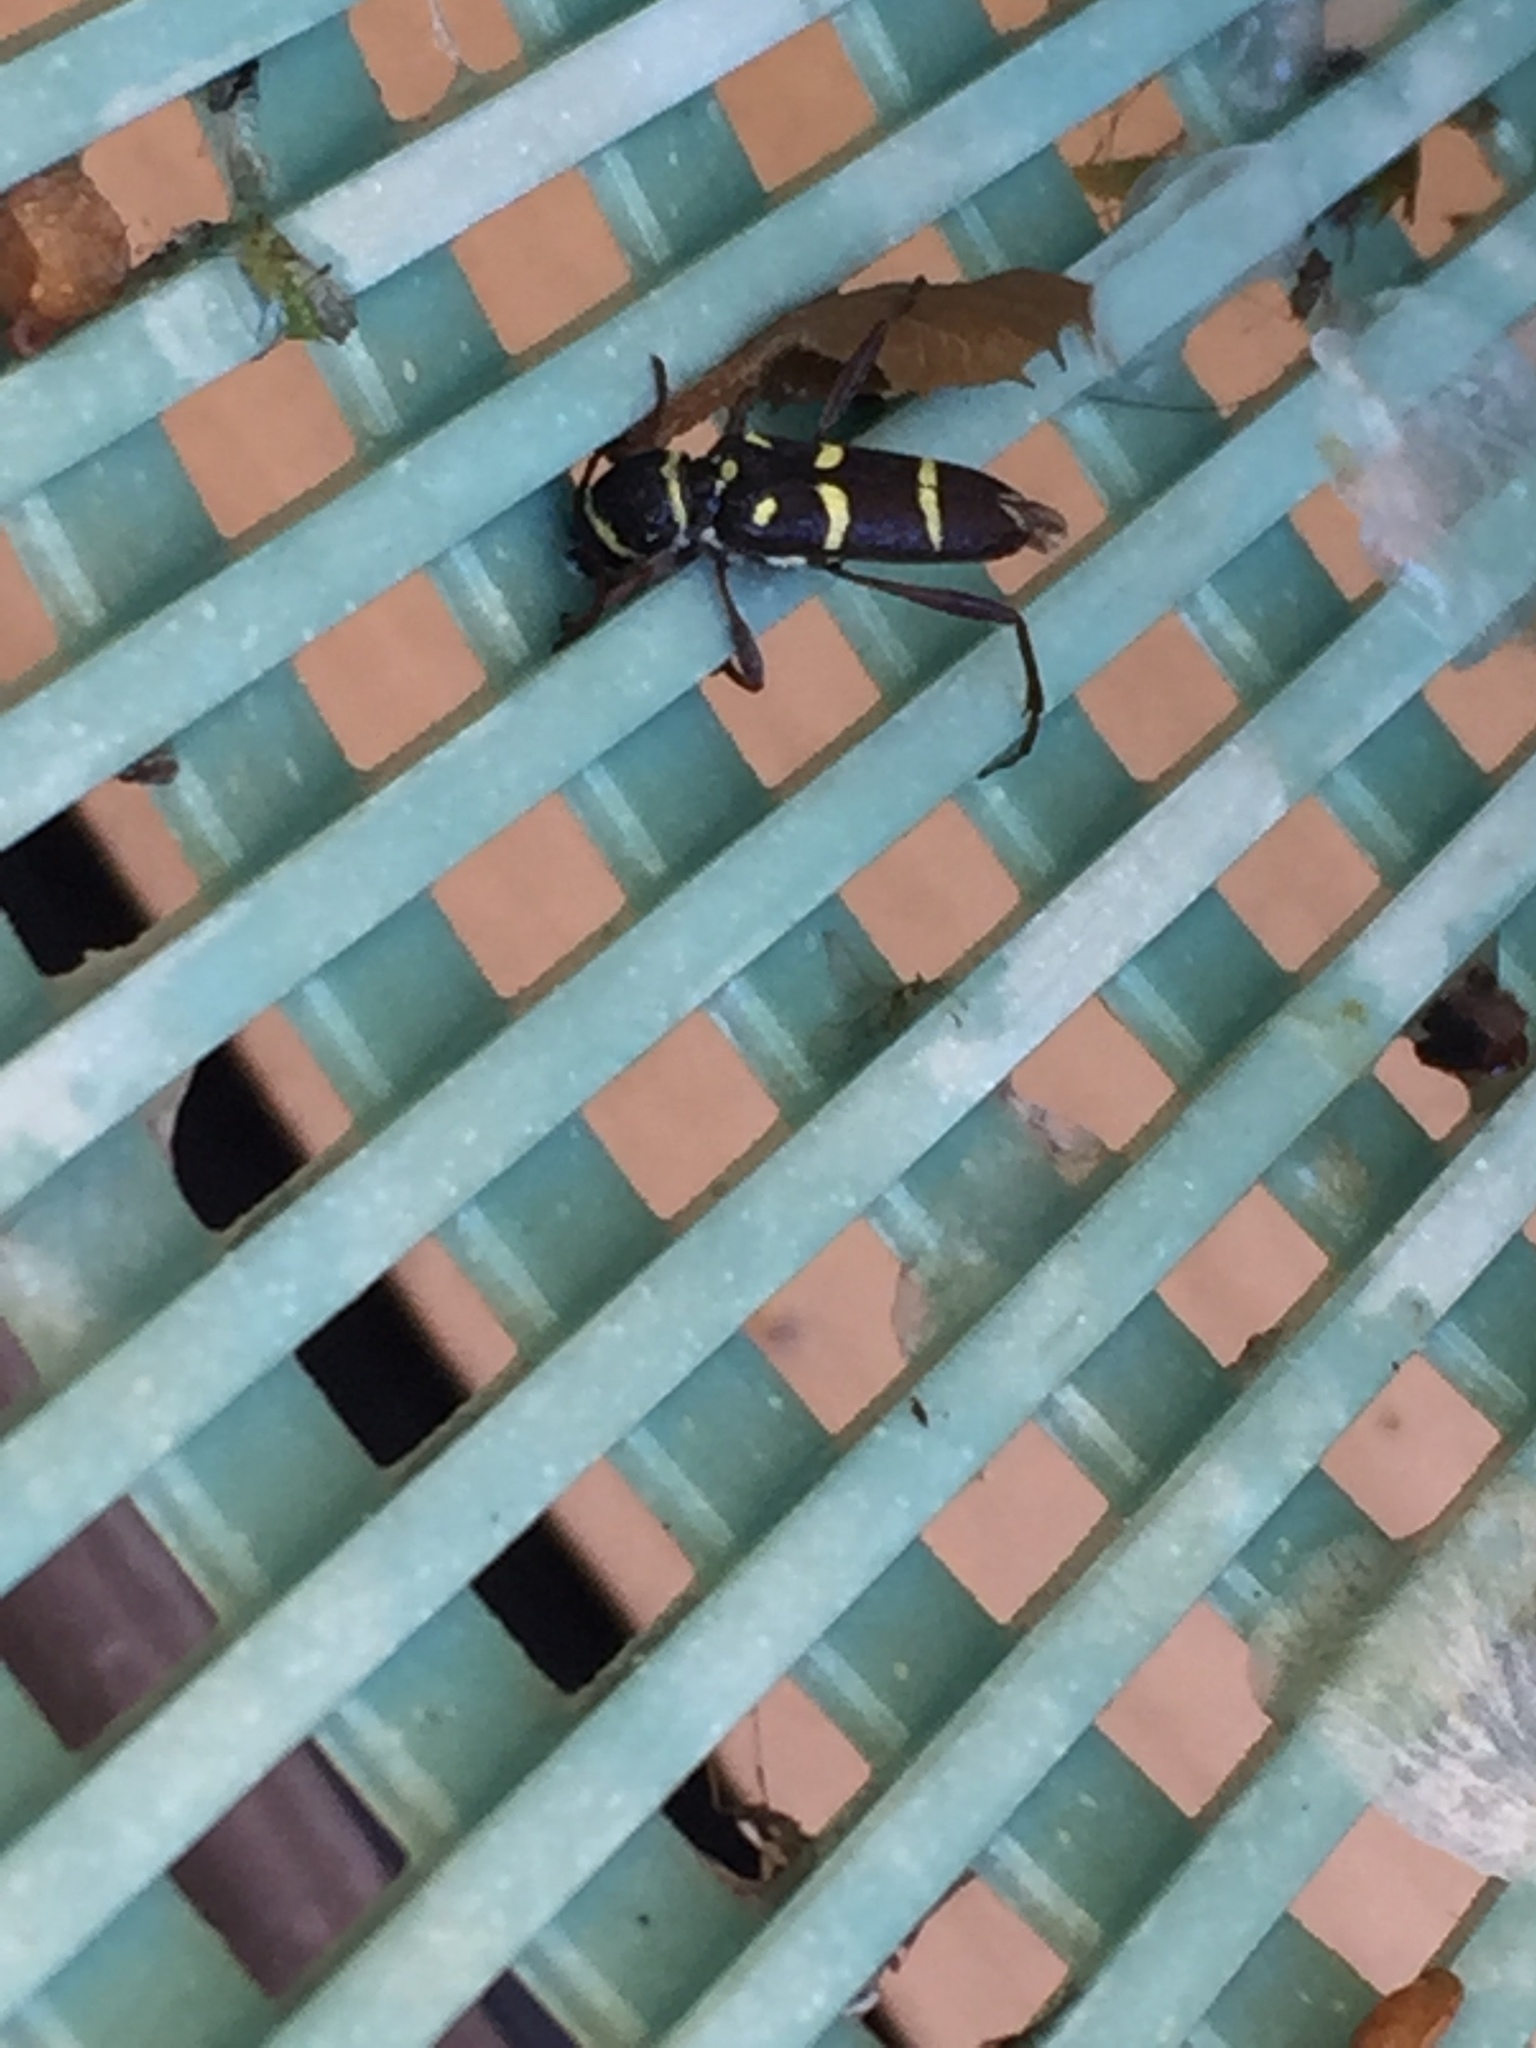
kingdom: Animalia
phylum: Arthropoda
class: Insecta
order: Coleoptera
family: Cerambycidae
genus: Clytus
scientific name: Clytus blaisdelli
